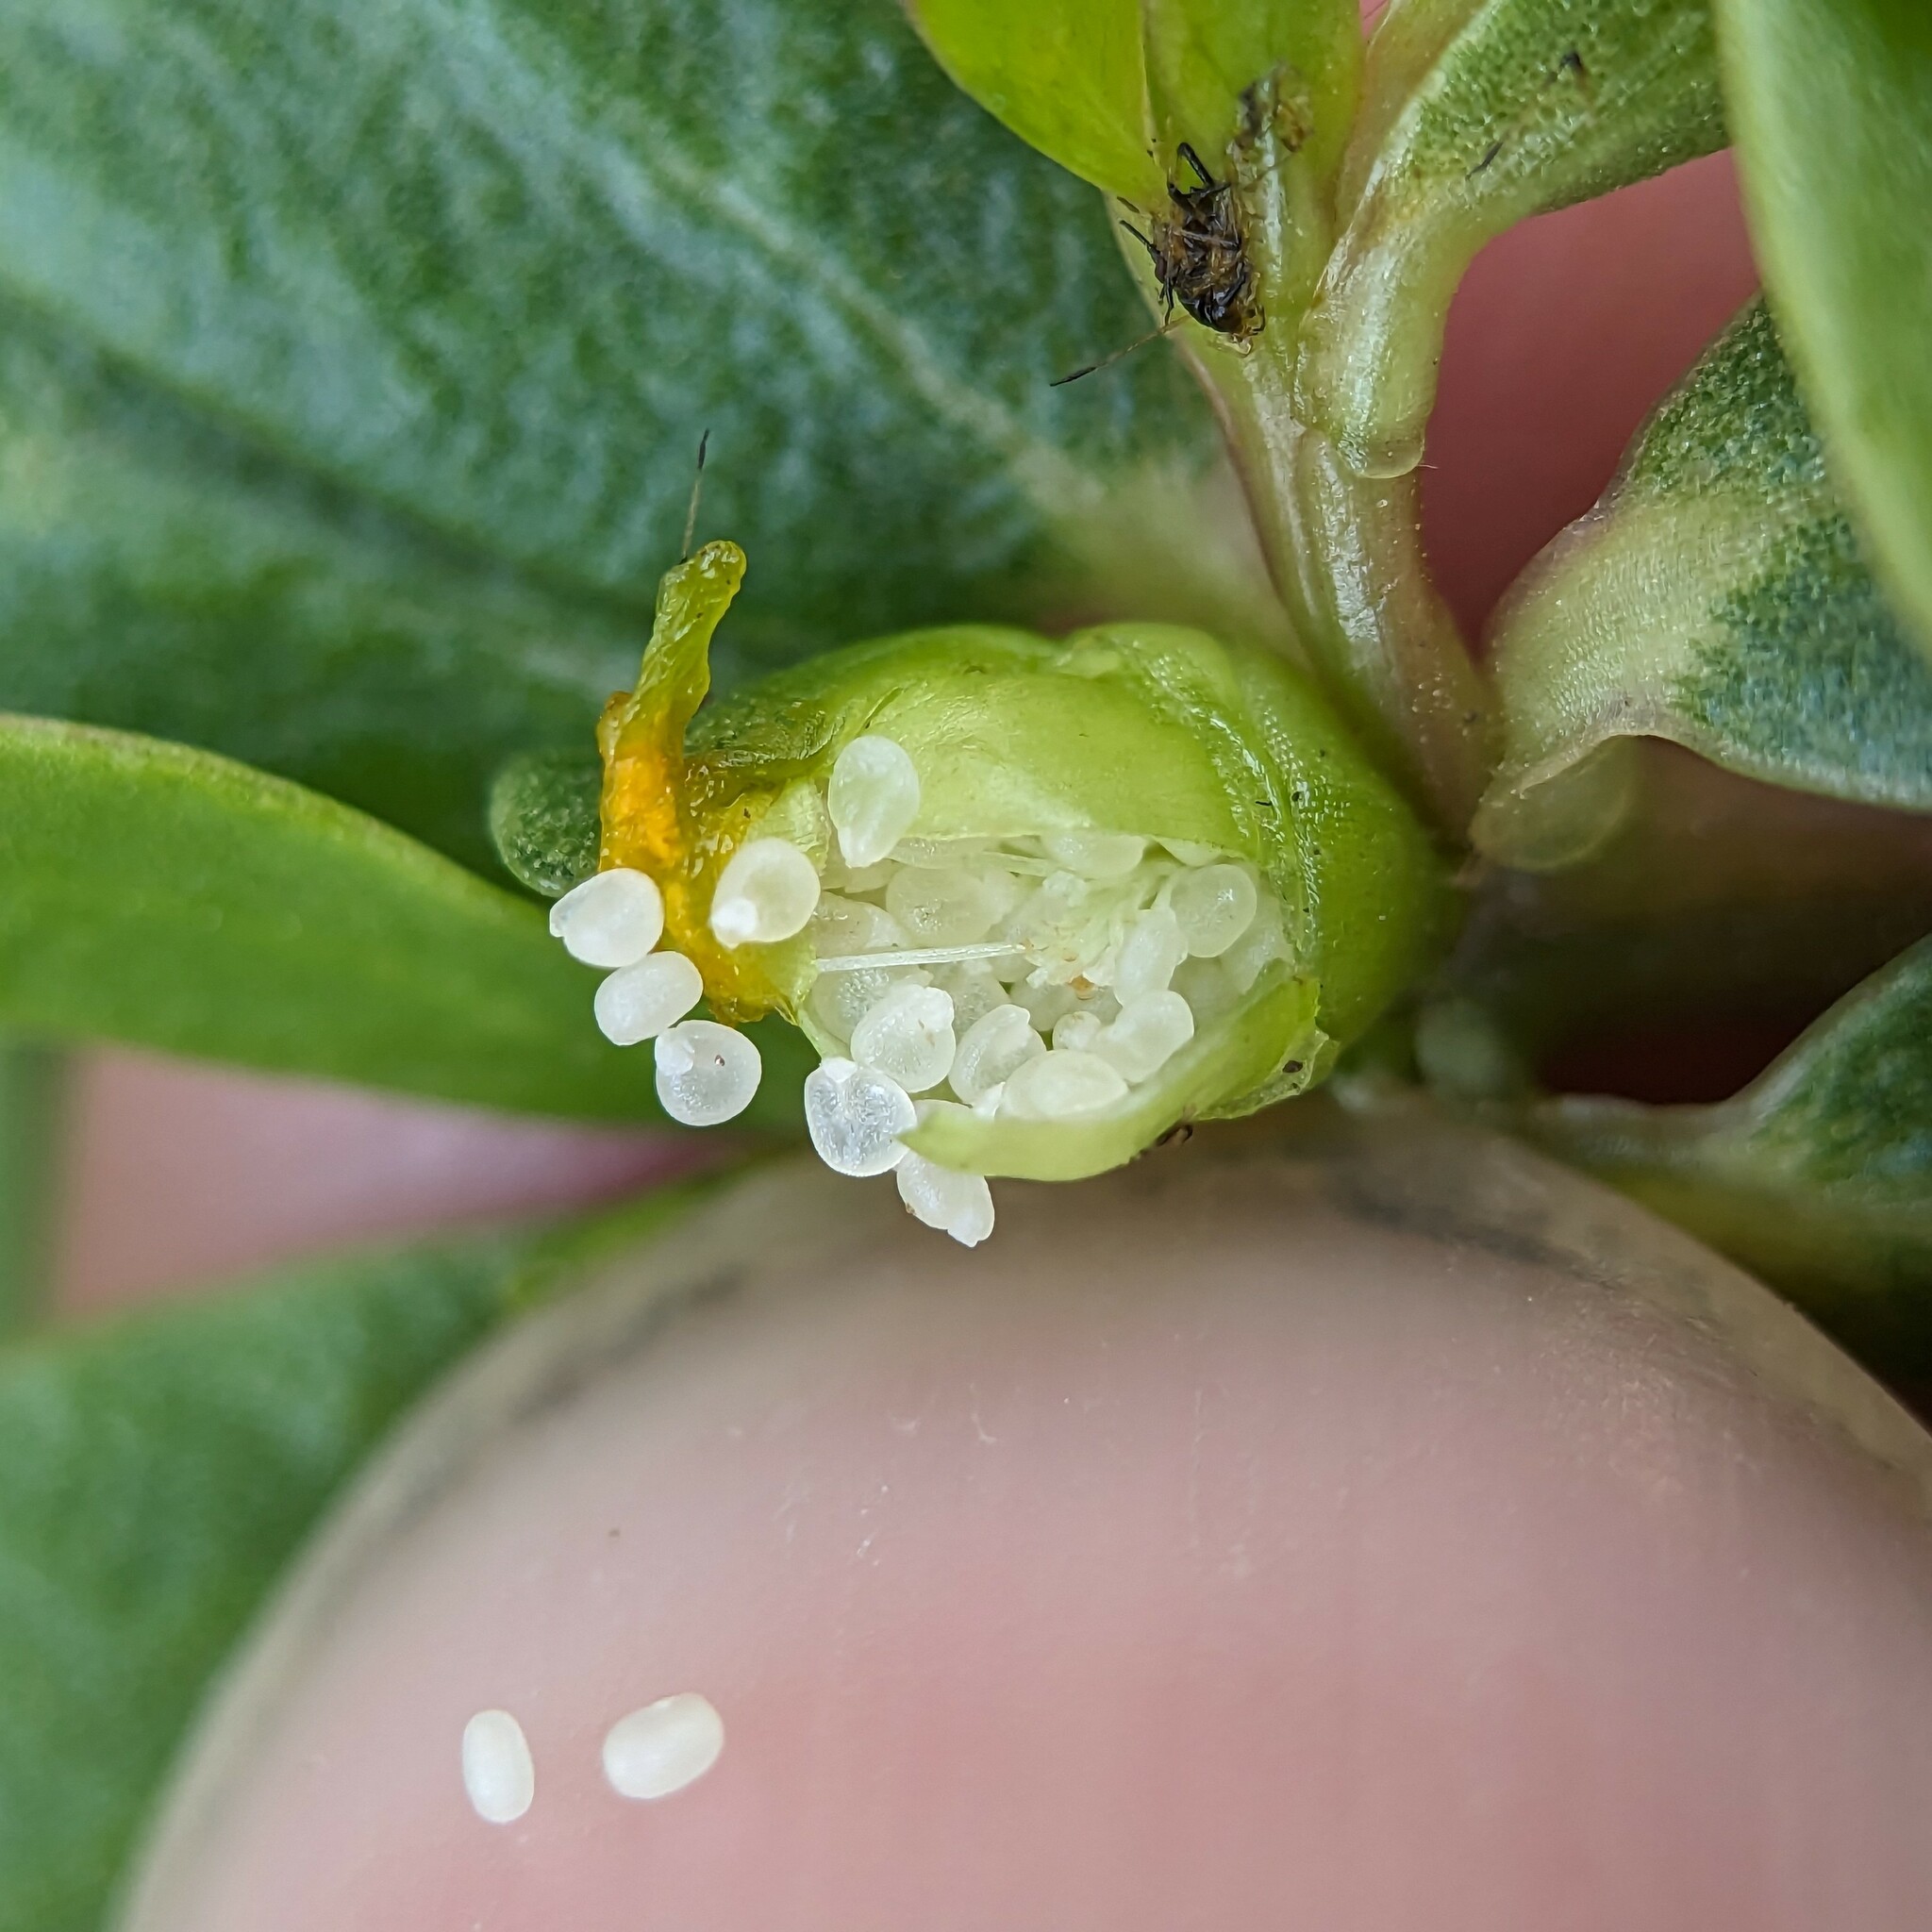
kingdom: Plantae
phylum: Tracheophyta
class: Magnoliopsida
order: Caryophyllales
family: Portulacaceae
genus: Portulaca
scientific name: Portulaca oleracea
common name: Common purslane
